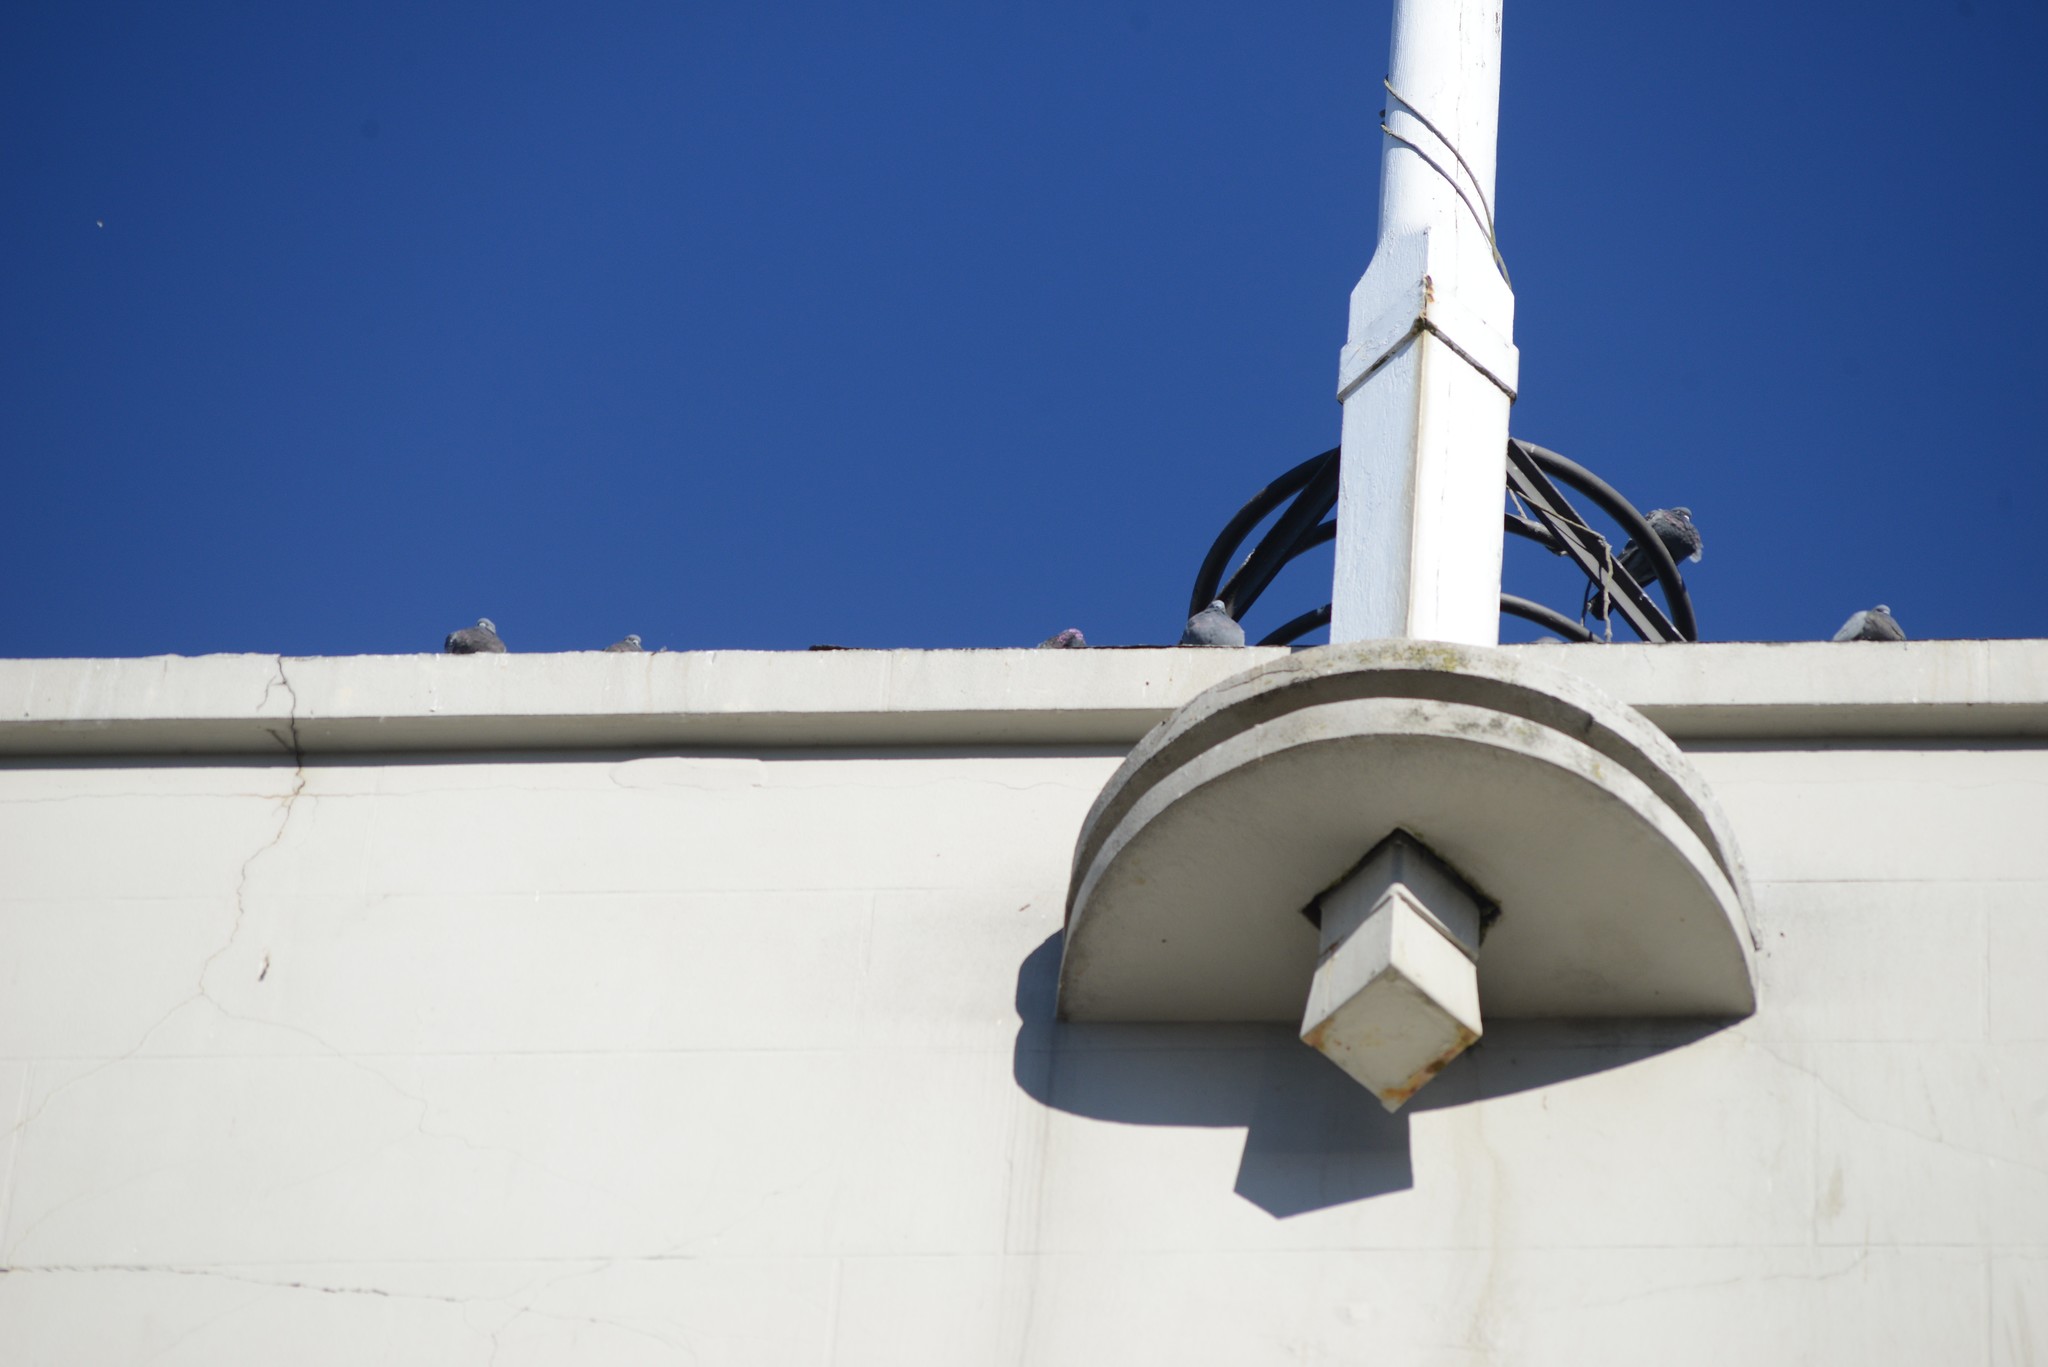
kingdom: Animalia
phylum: Chordata
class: Aves
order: Columbiformes
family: Columbidae
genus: Columba
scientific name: Columba livia
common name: Rock pigeon
